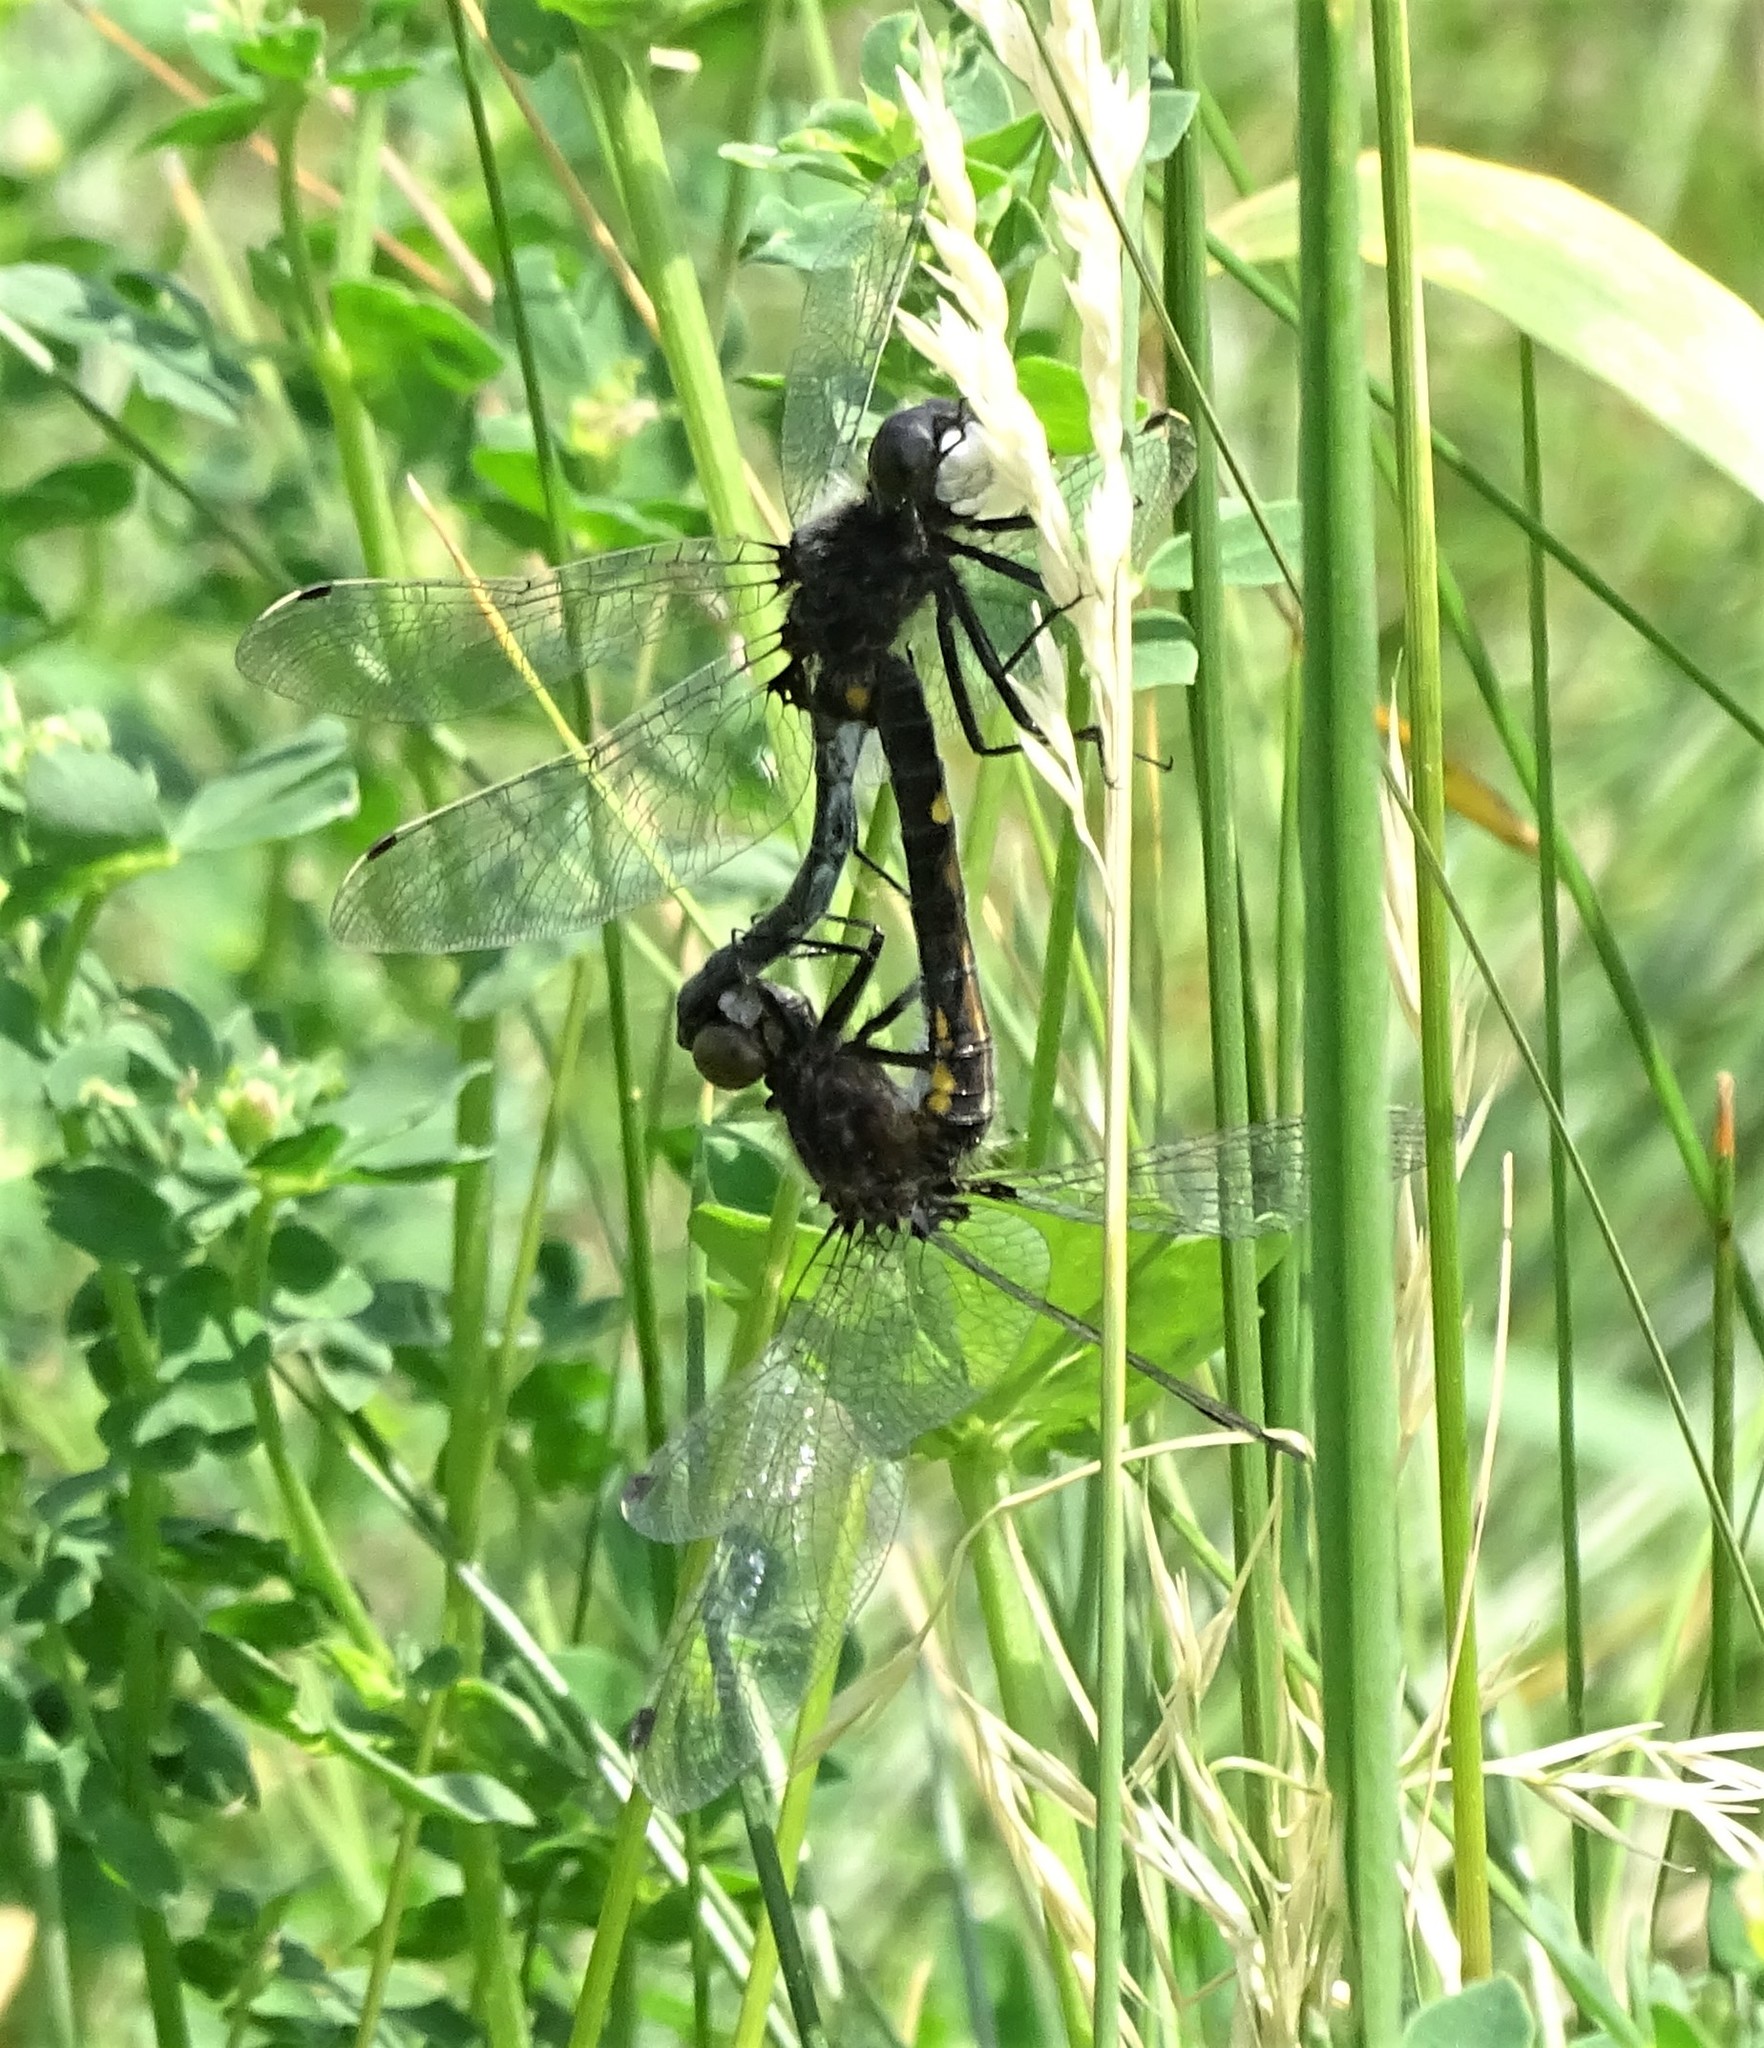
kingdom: Animalia
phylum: Arthropoda
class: Insecta
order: Odonata
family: Libellulidae
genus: Leucorrhinia
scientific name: Leucorrhinia intacta
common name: Dot-tailed whiteface
